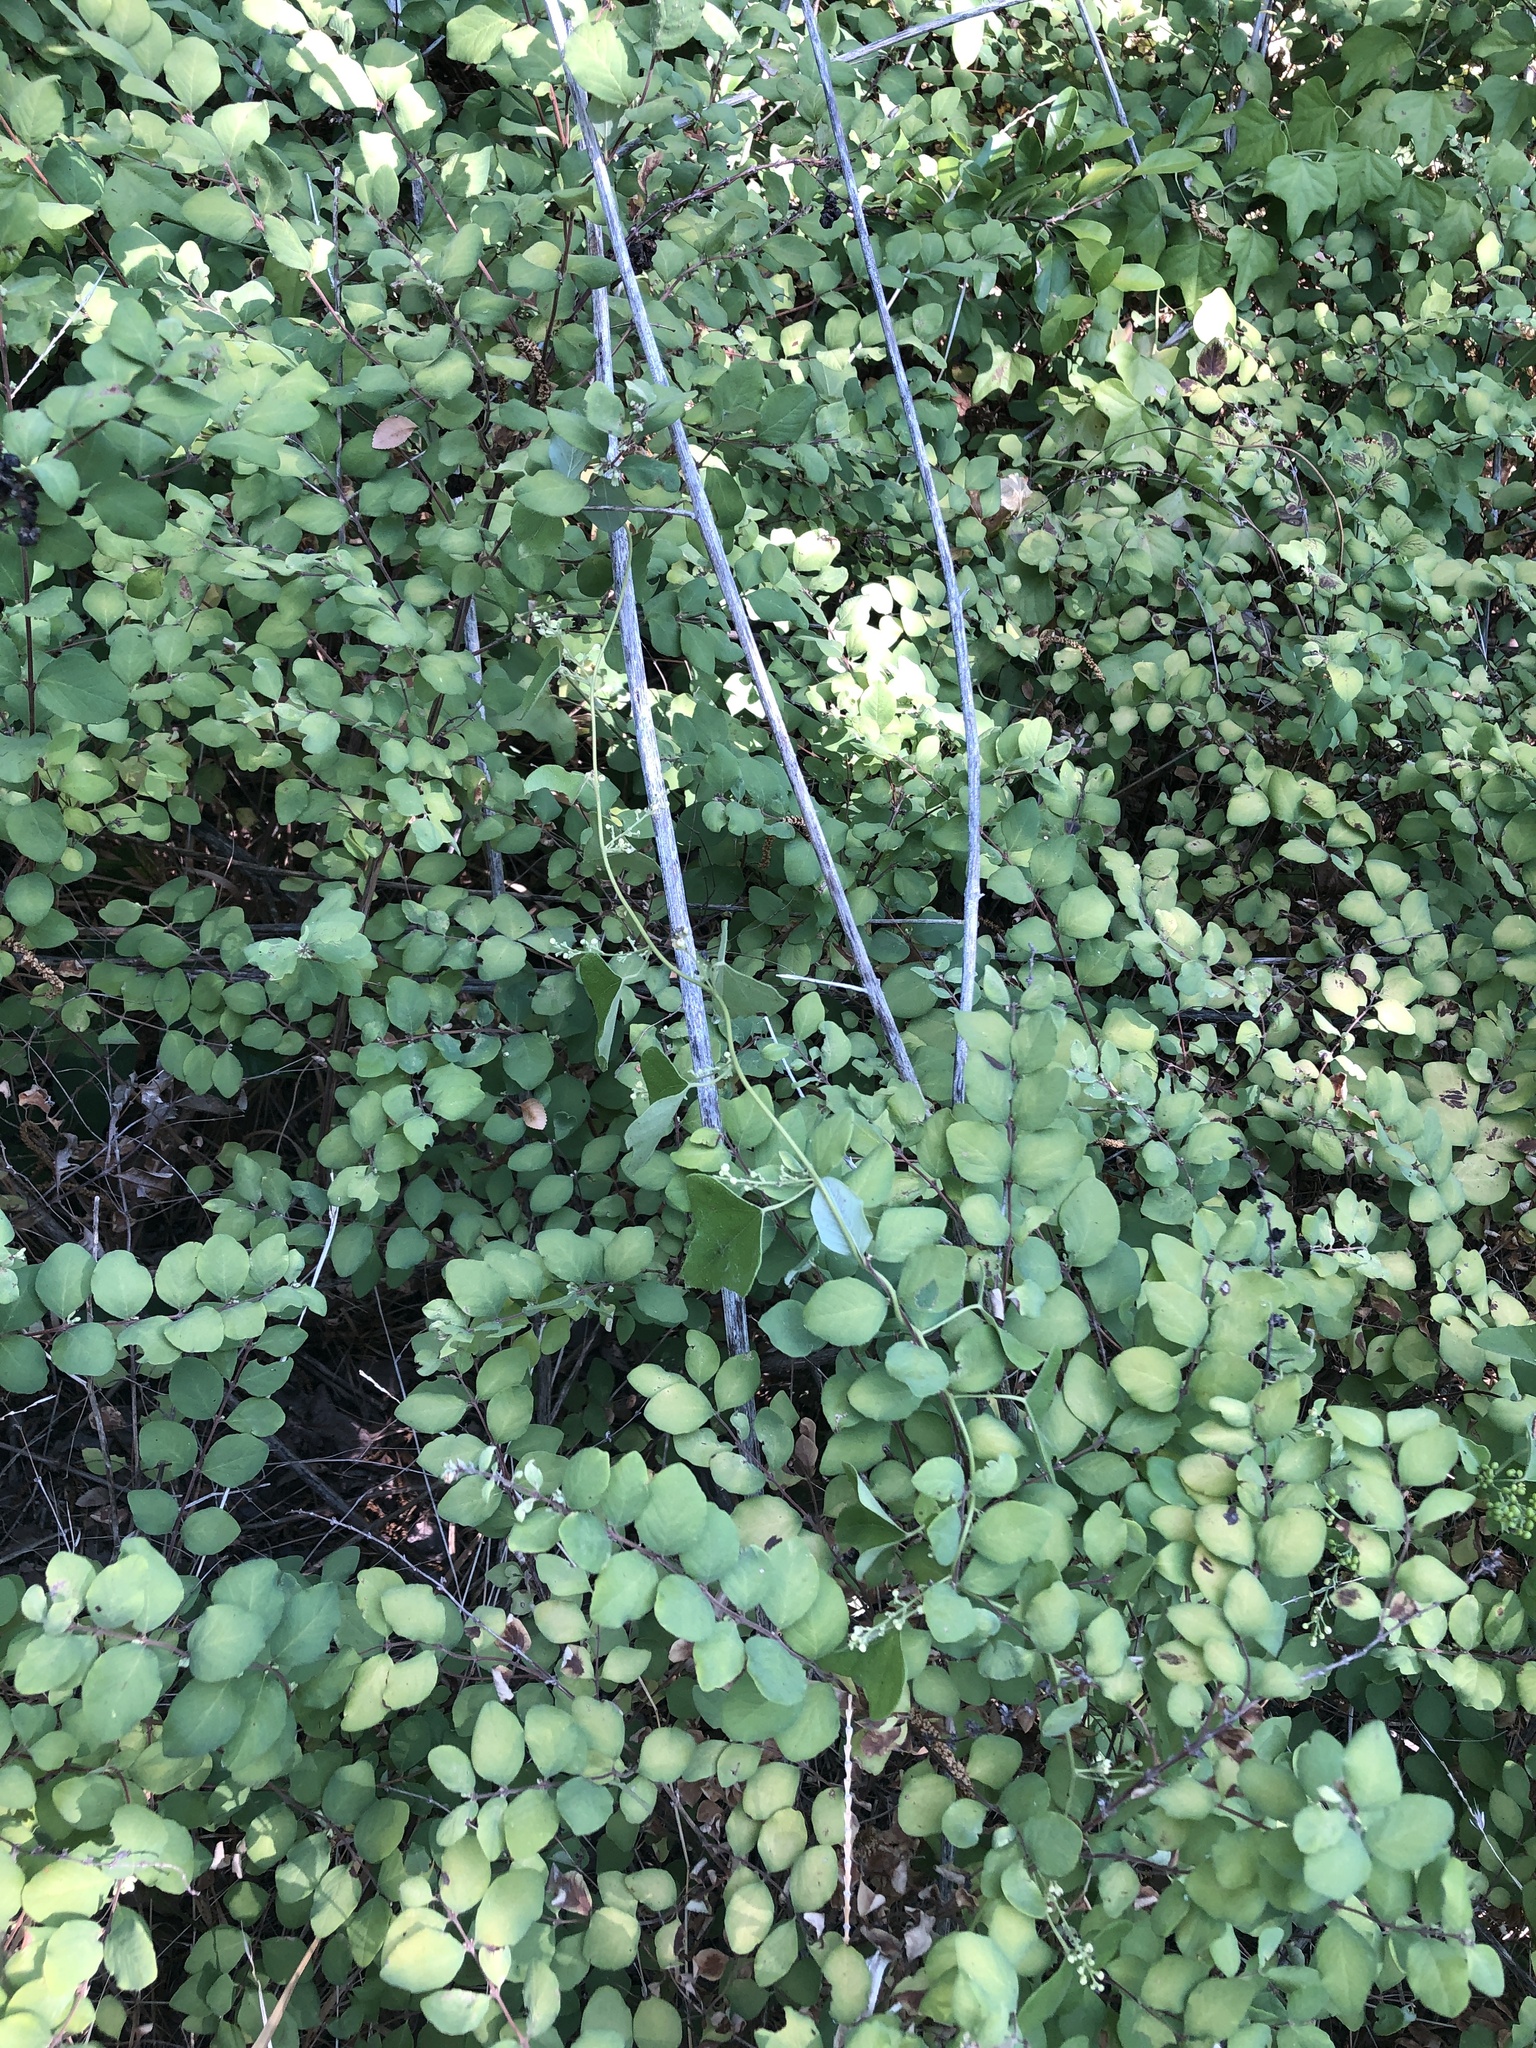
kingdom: Plantae
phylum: Tracheophyta
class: Magnoliopsida
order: Ranunculales
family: Menispermaceae
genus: Cocculus
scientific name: Cocculus carolinus
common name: Carolina moonseed
